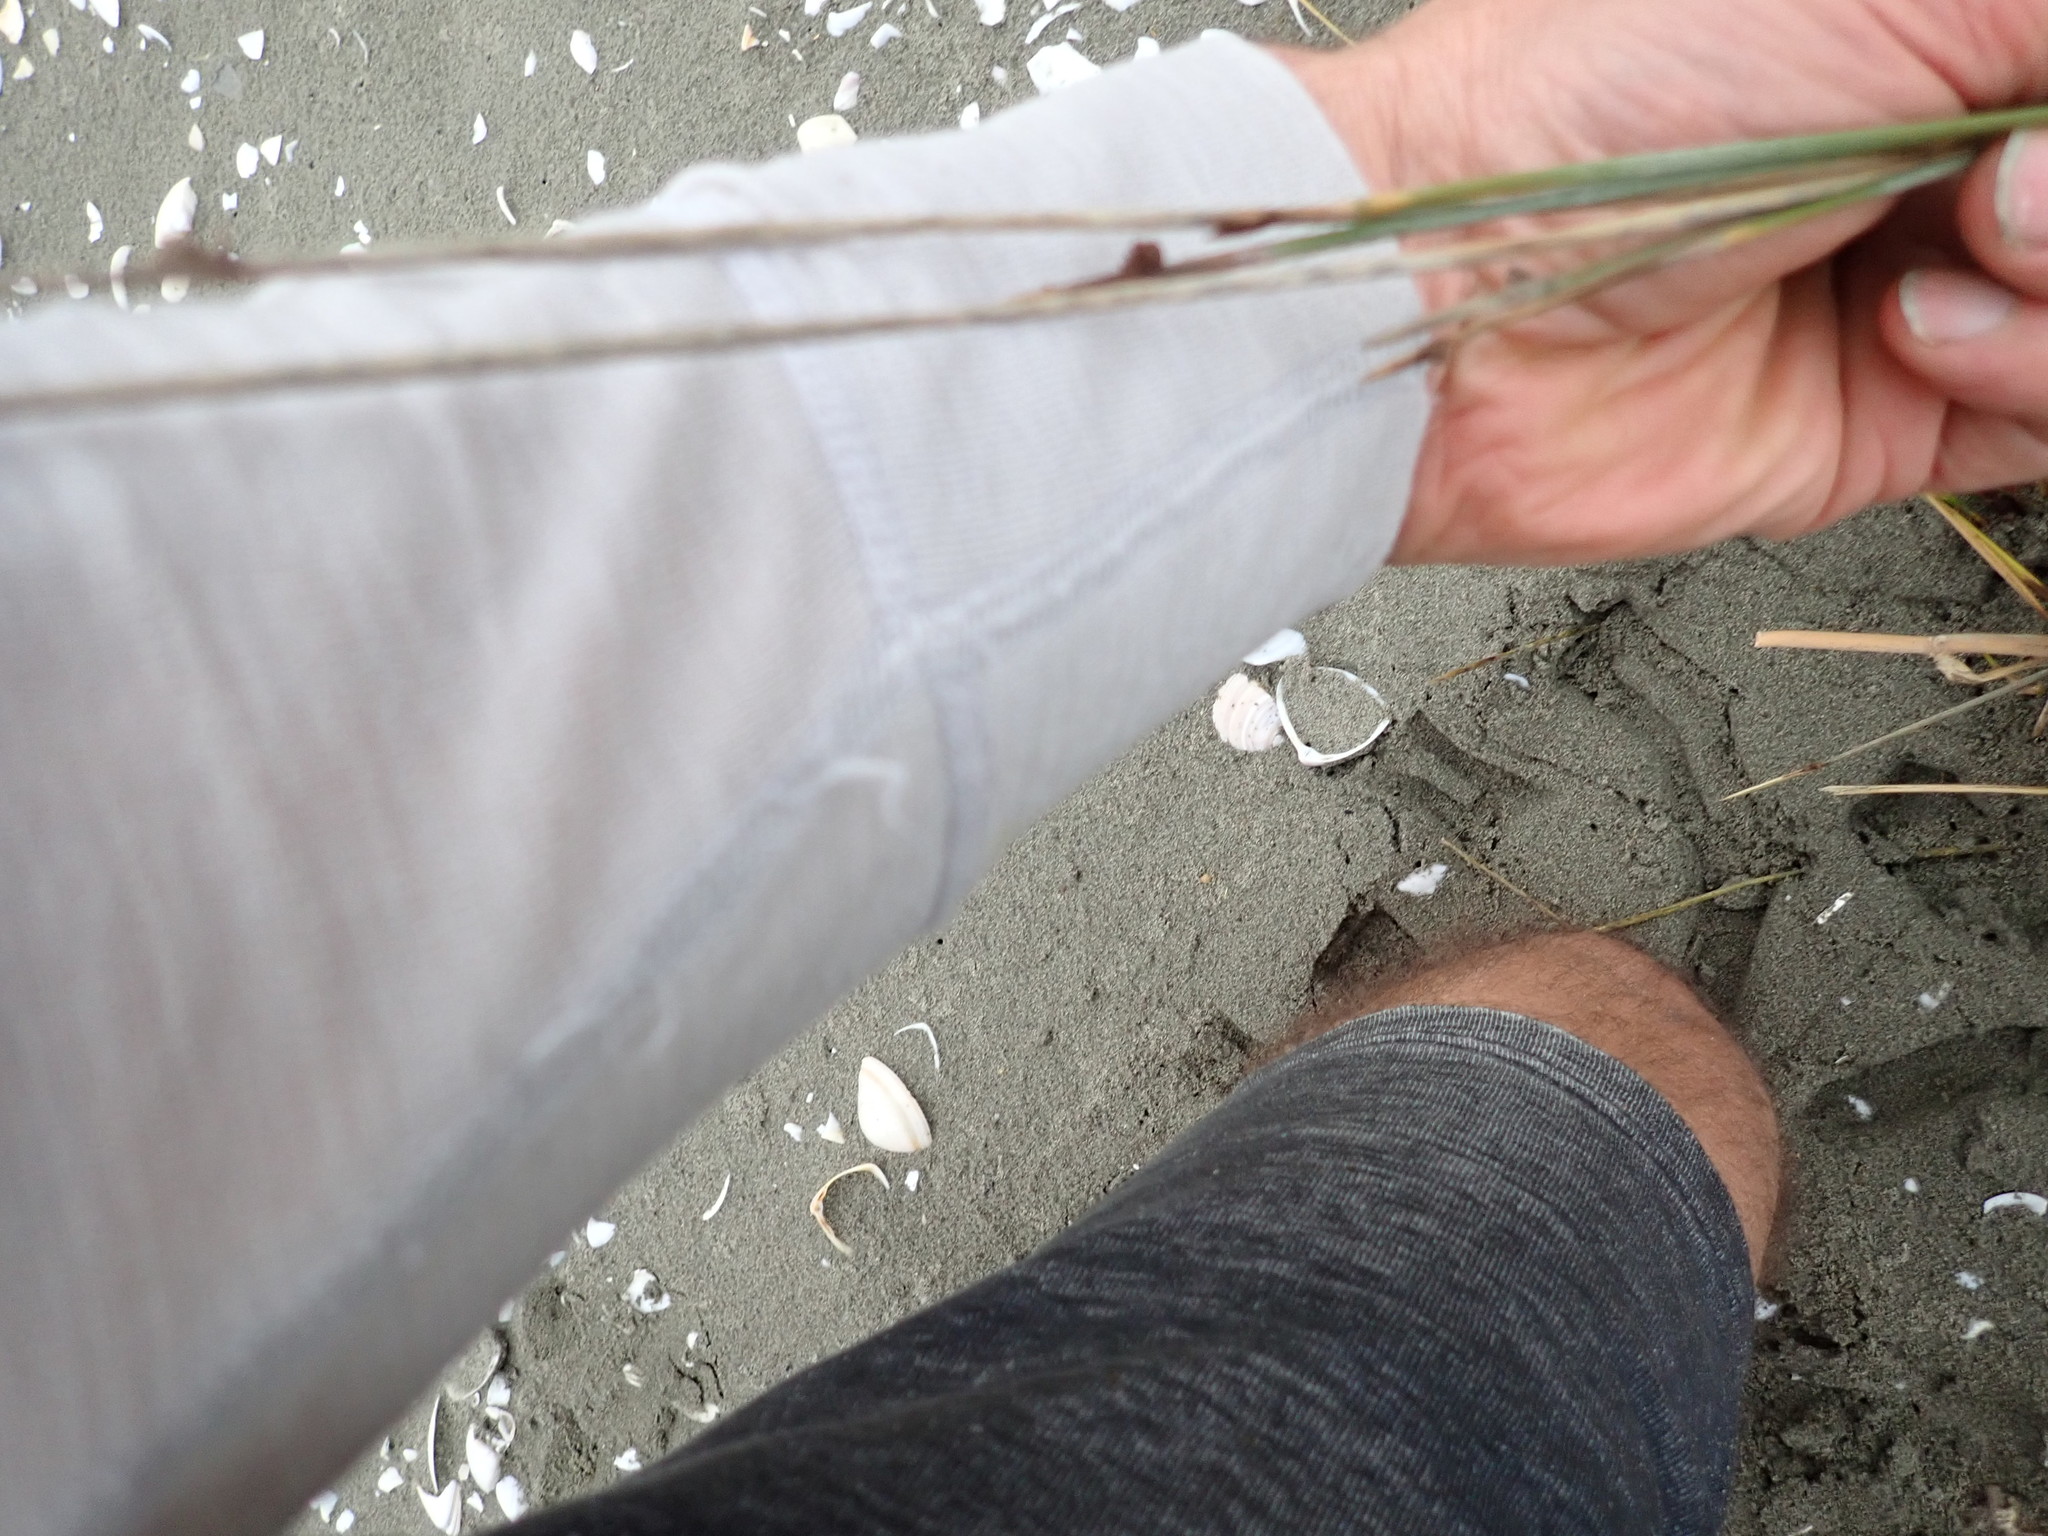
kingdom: Plantae
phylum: Tracheophyta
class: Liliopsida
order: Poales
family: Cyperaceae
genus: Ficinia
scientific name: Ficinia nodosa
